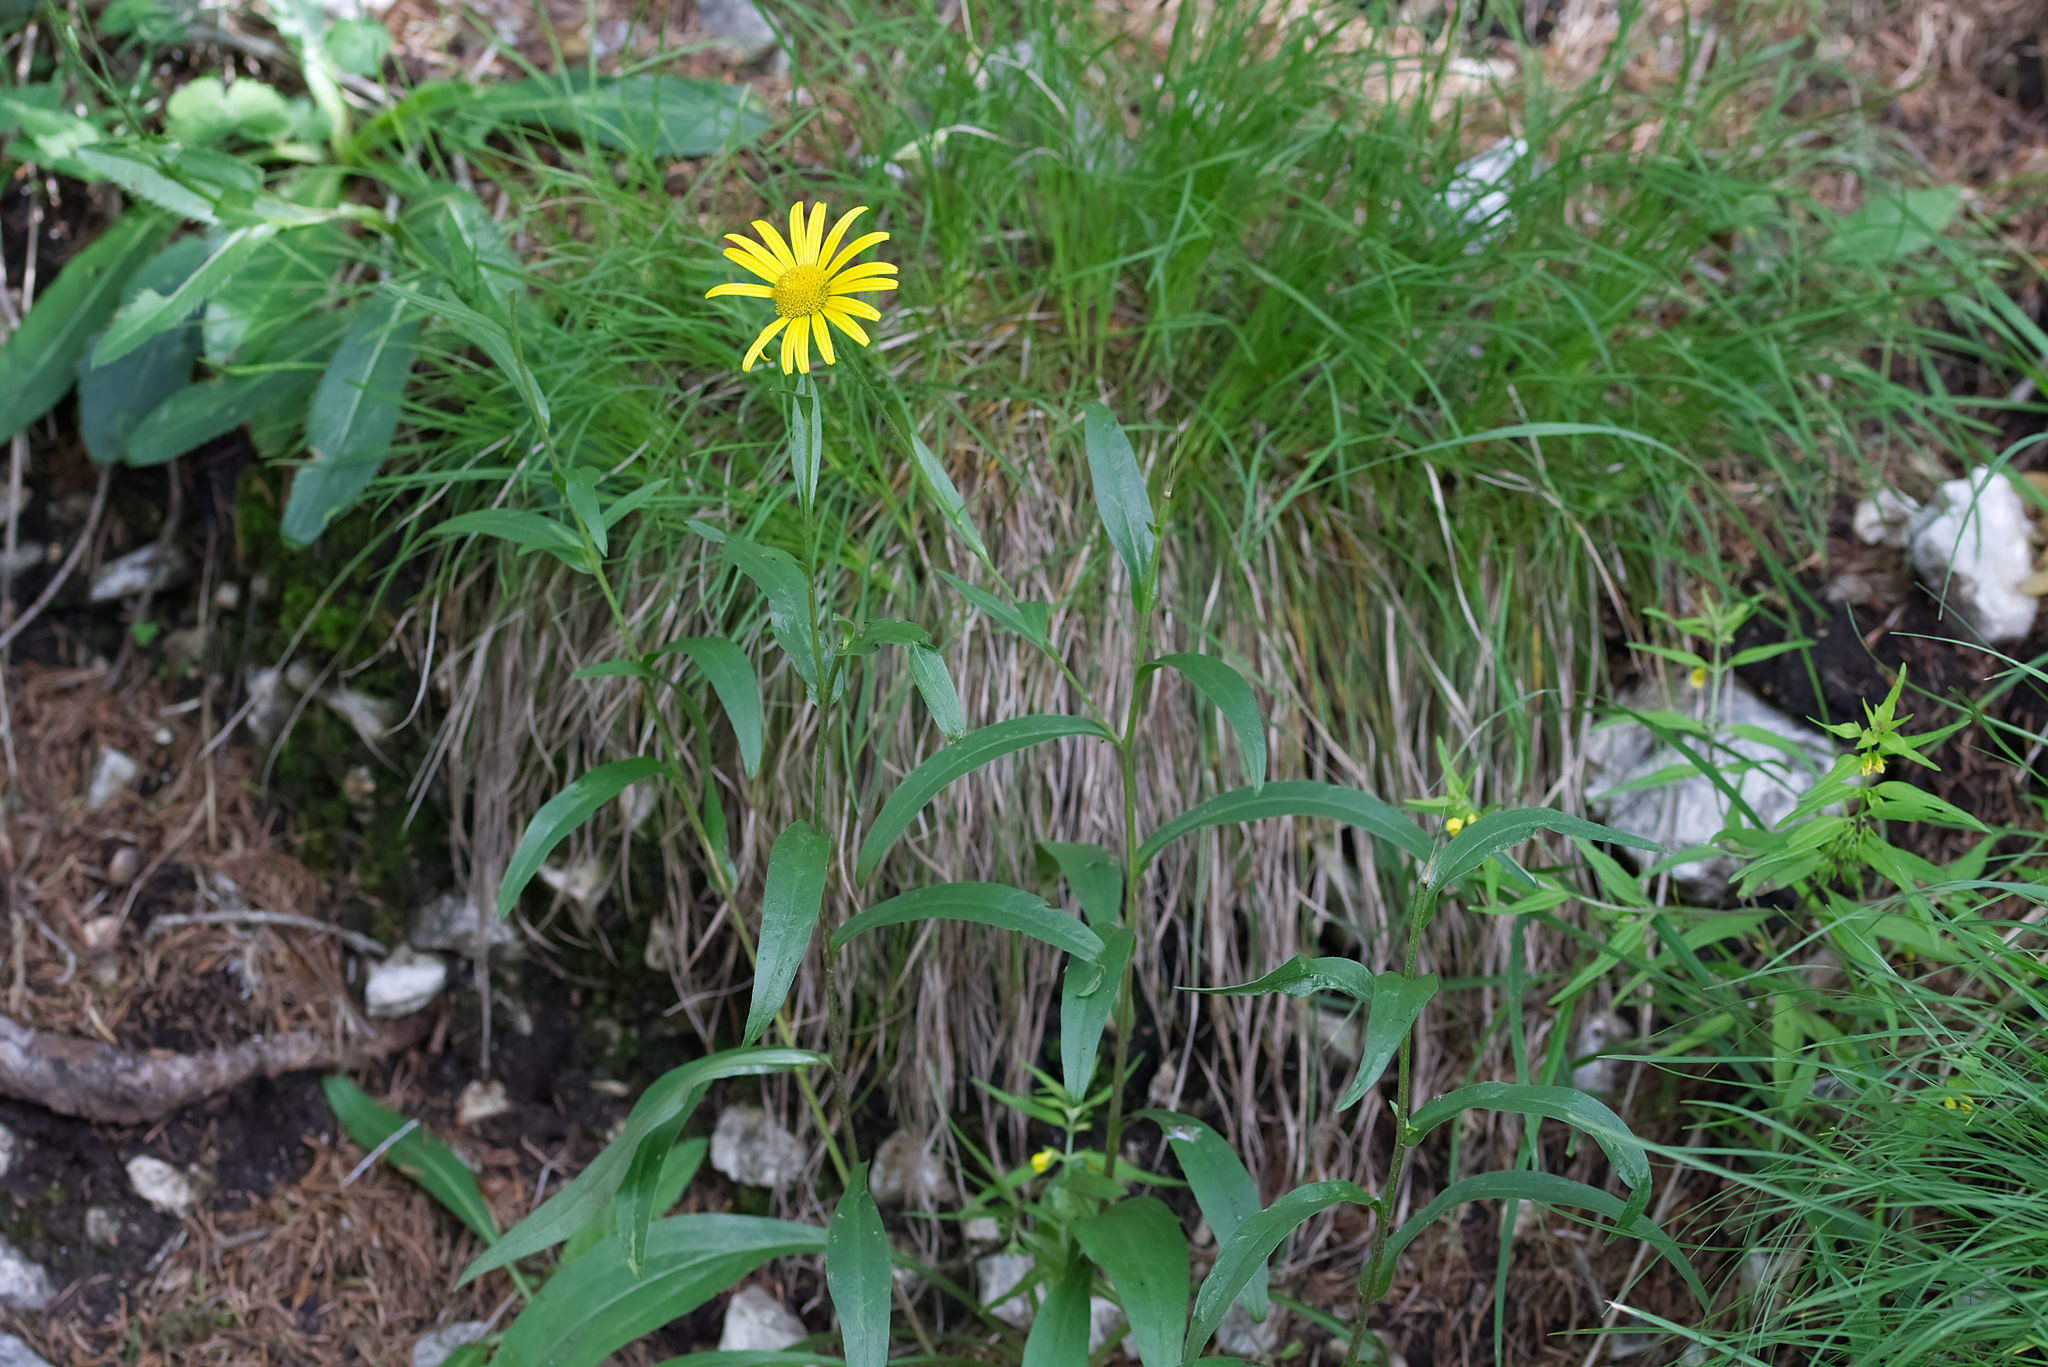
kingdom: Plantae
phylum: Tracheophyta
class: Magnoliopsida
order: Asterales
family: Asteraceae
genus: Buphthalmum
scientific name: Buphthalmum salicifolium
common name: Willow-leaved yellow-oxeye
